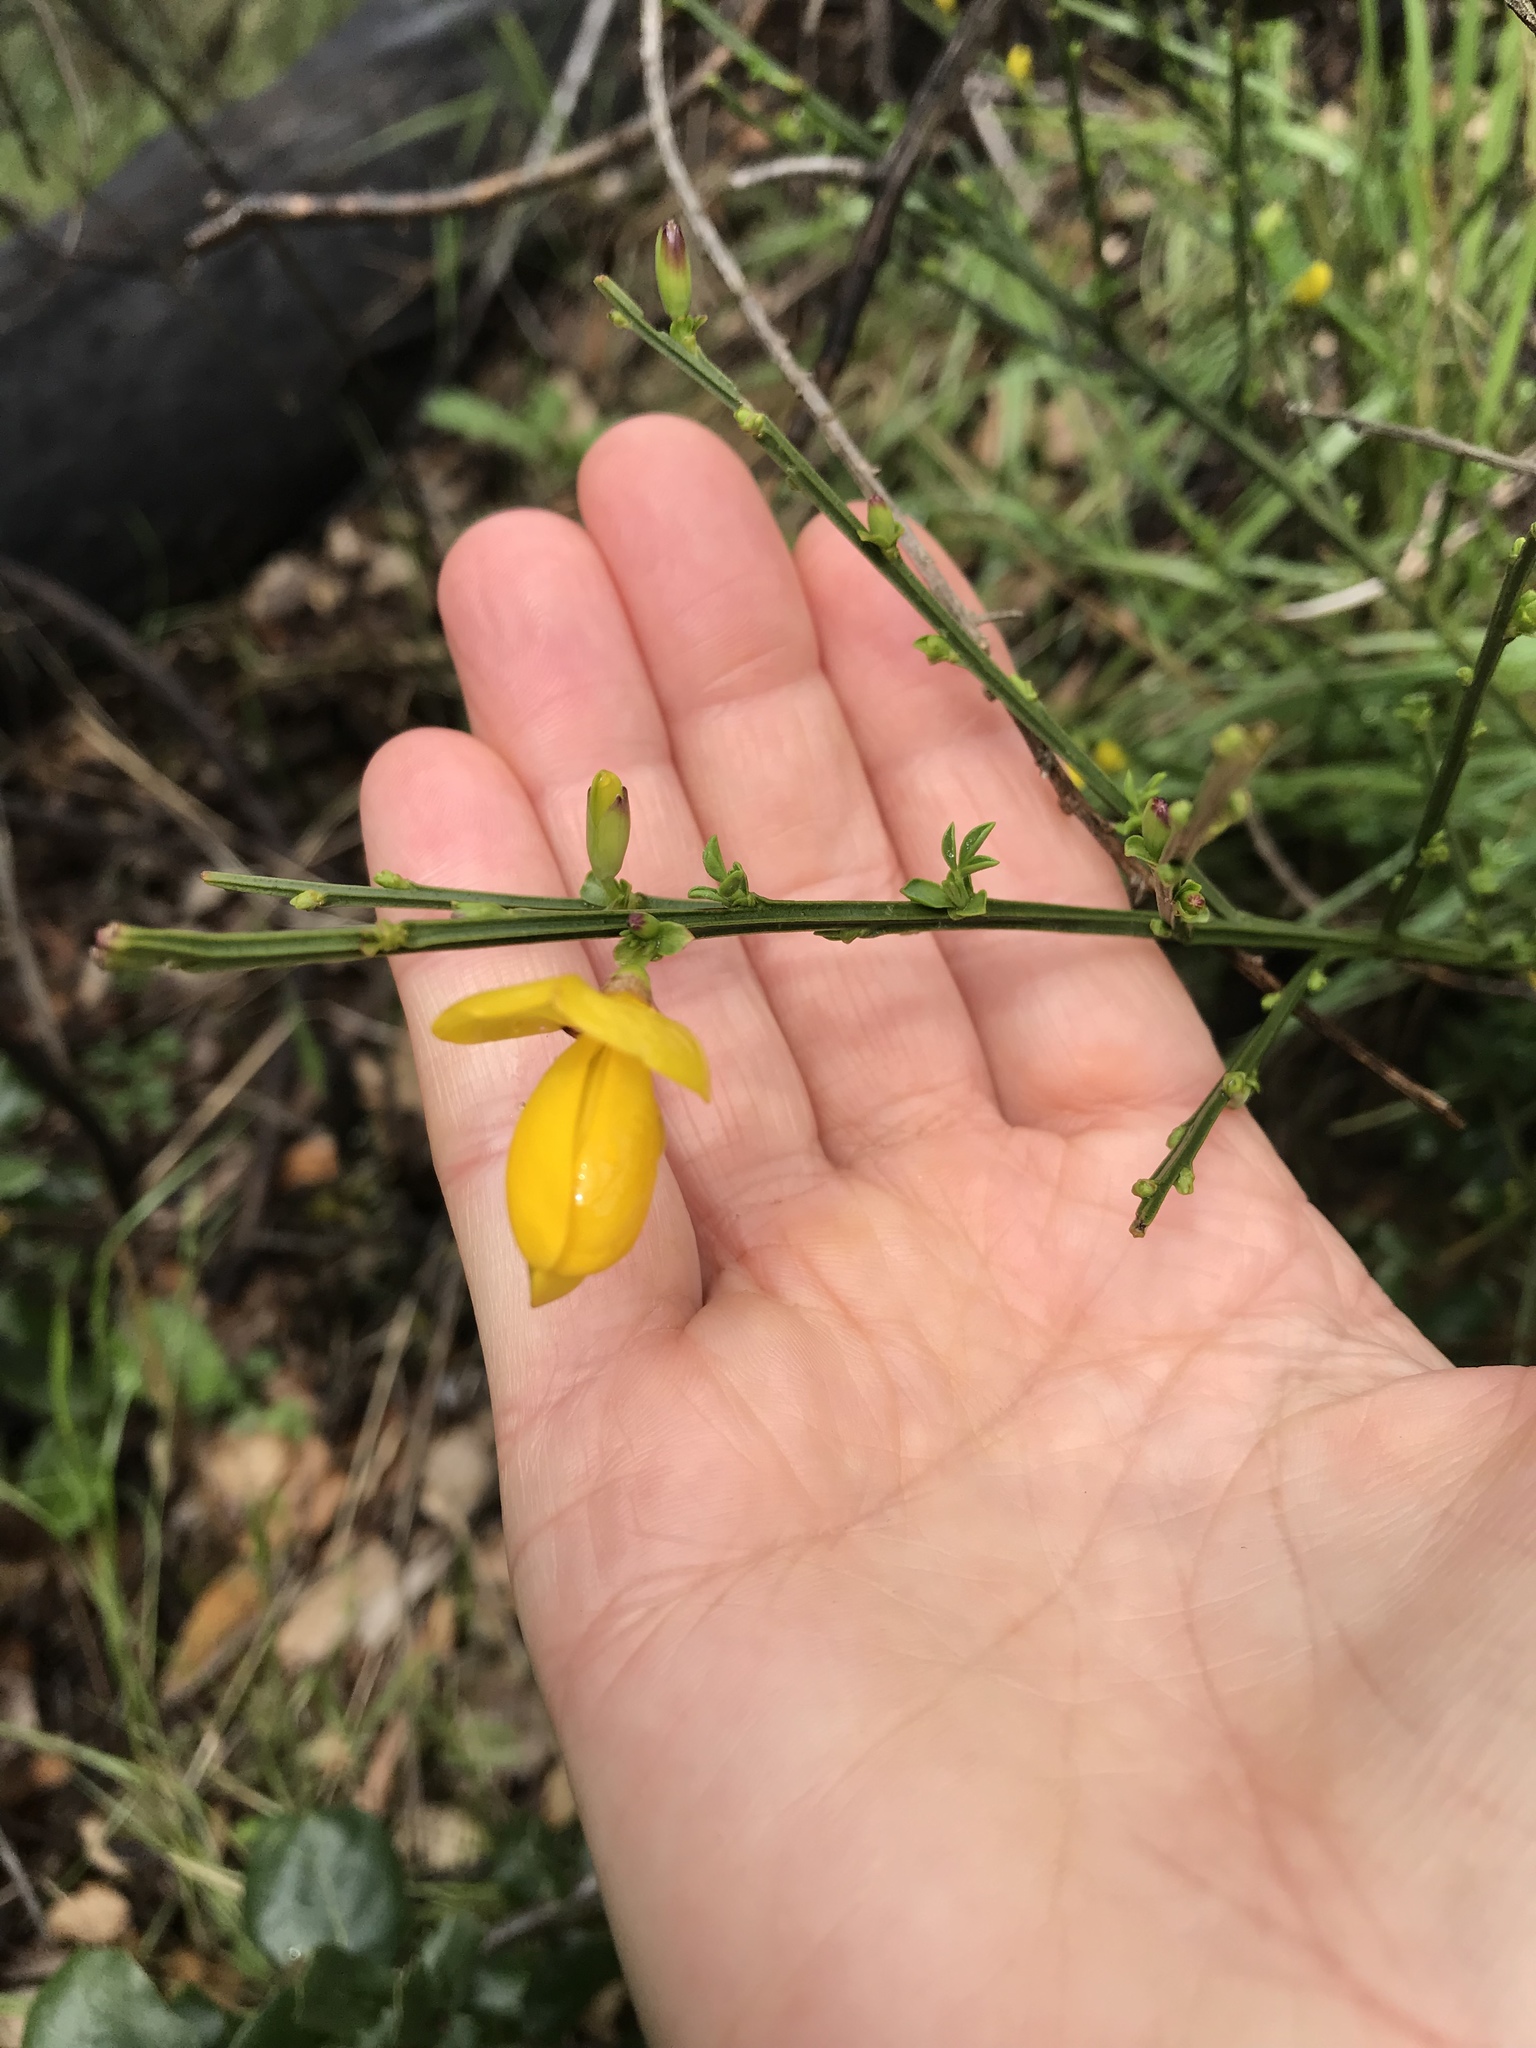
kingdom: Plantae
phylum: Tracheophyta
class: Magnoliopsida
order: Fabales
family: Fabaceae
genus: Cytisus
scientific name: Cytisus scoparius
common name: Scotch broom
